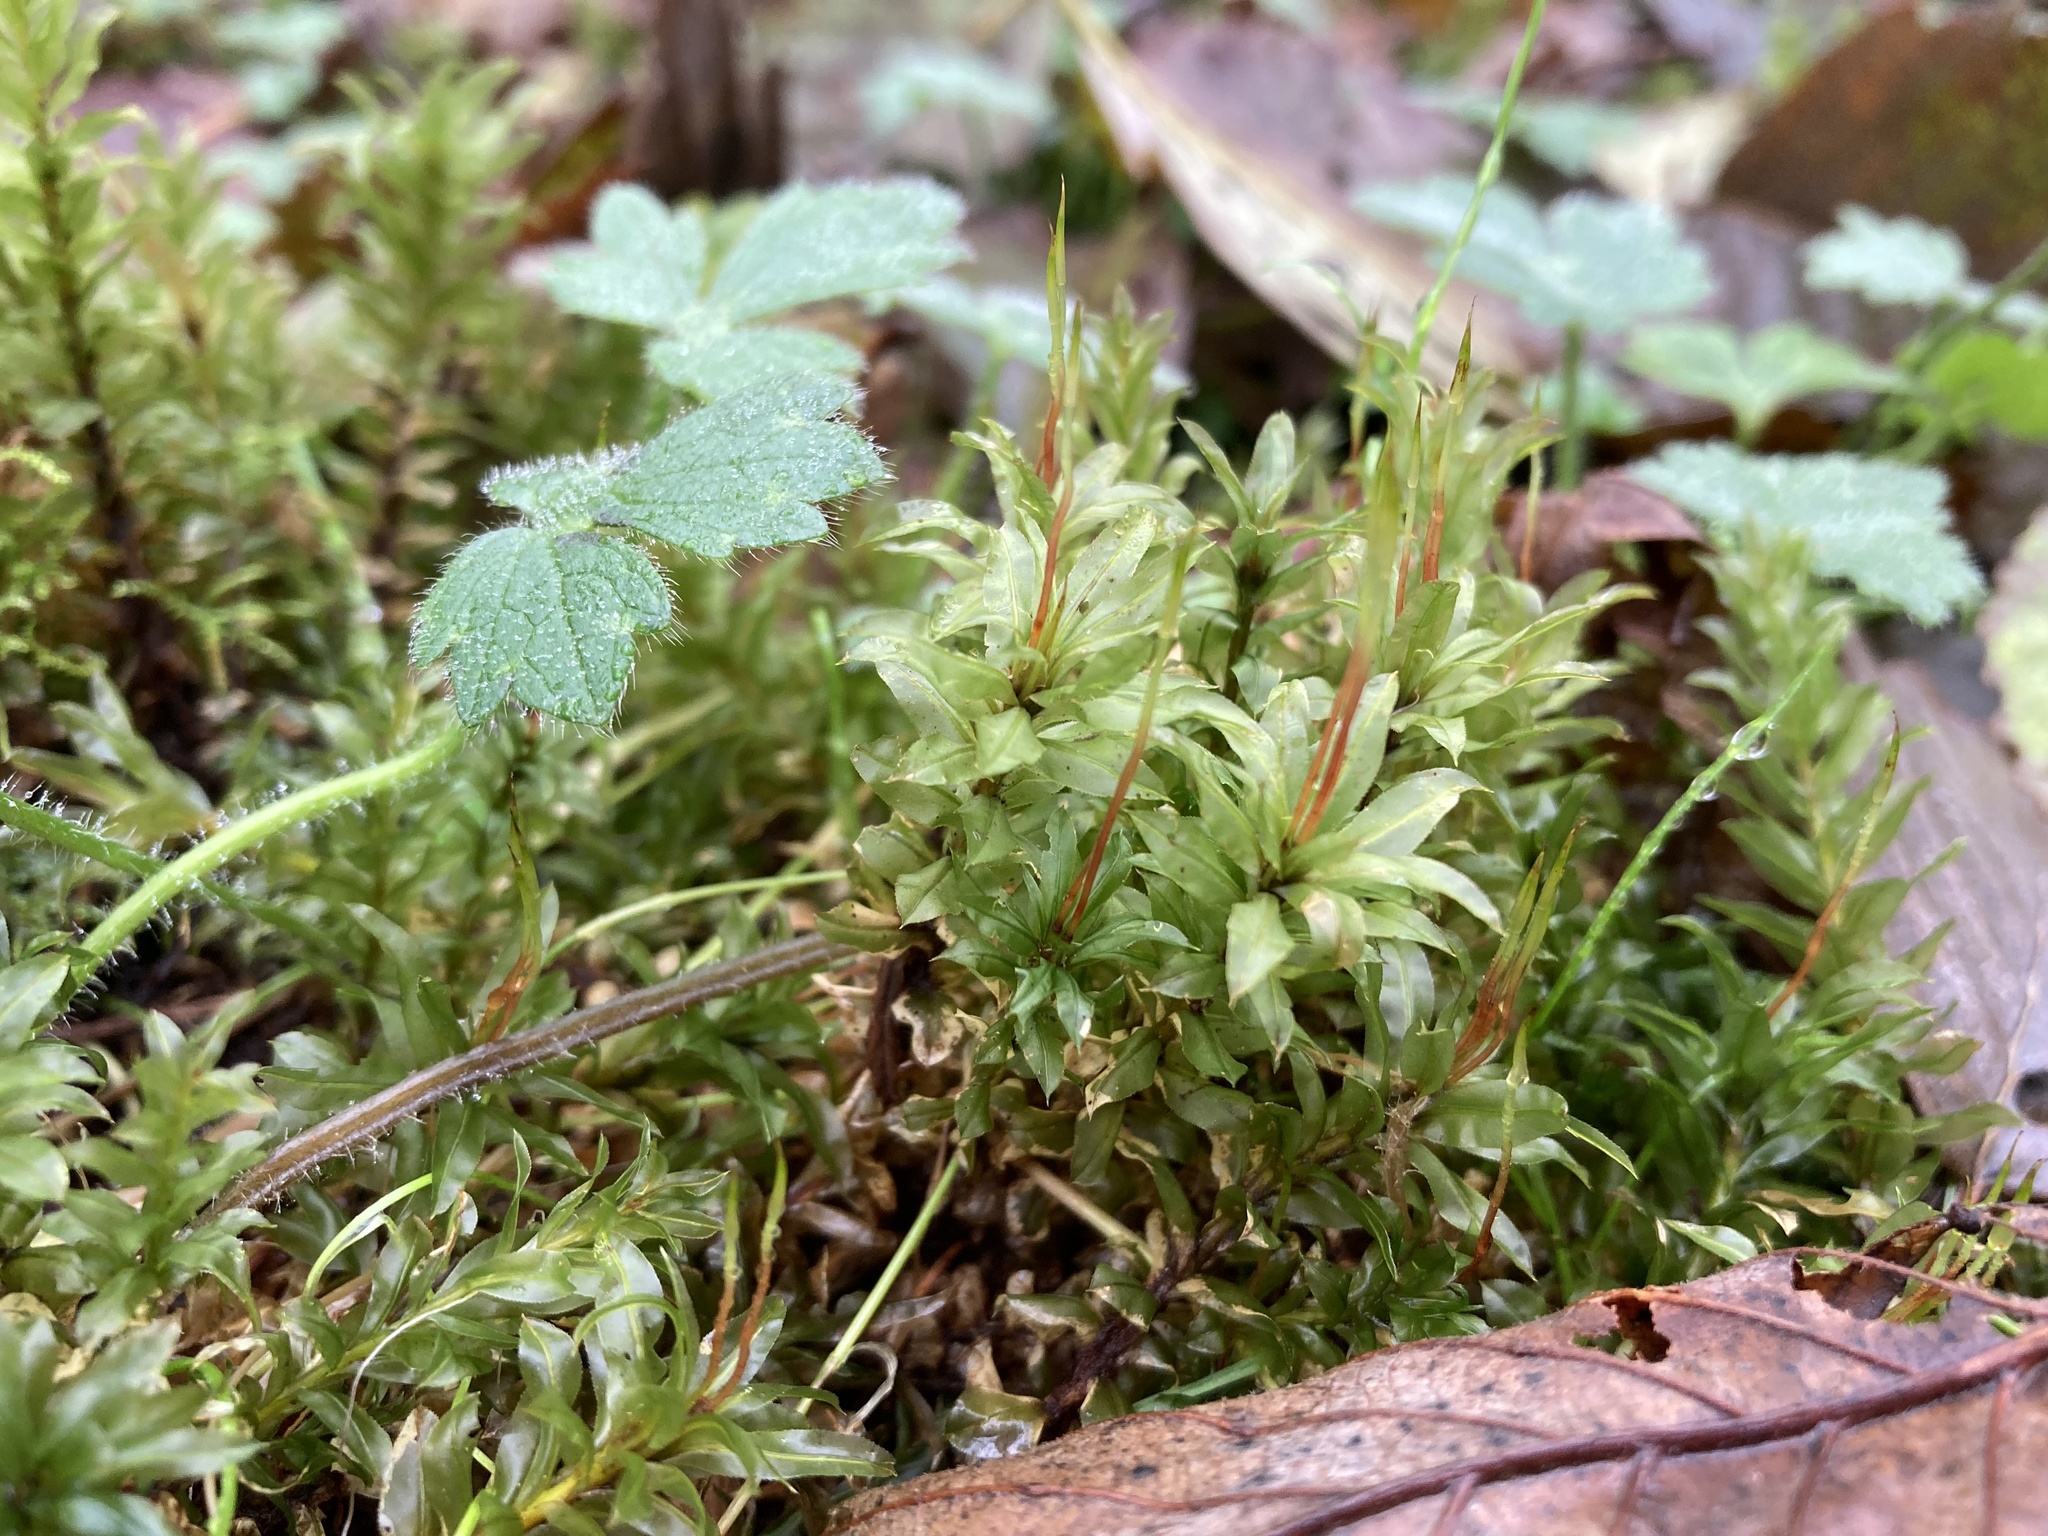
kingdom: Plantae
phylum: Bryophyta
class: Bryopsida
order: Bryales
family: Mniaceae
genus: Plagiomnium
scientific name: Plagiomnium insigne
